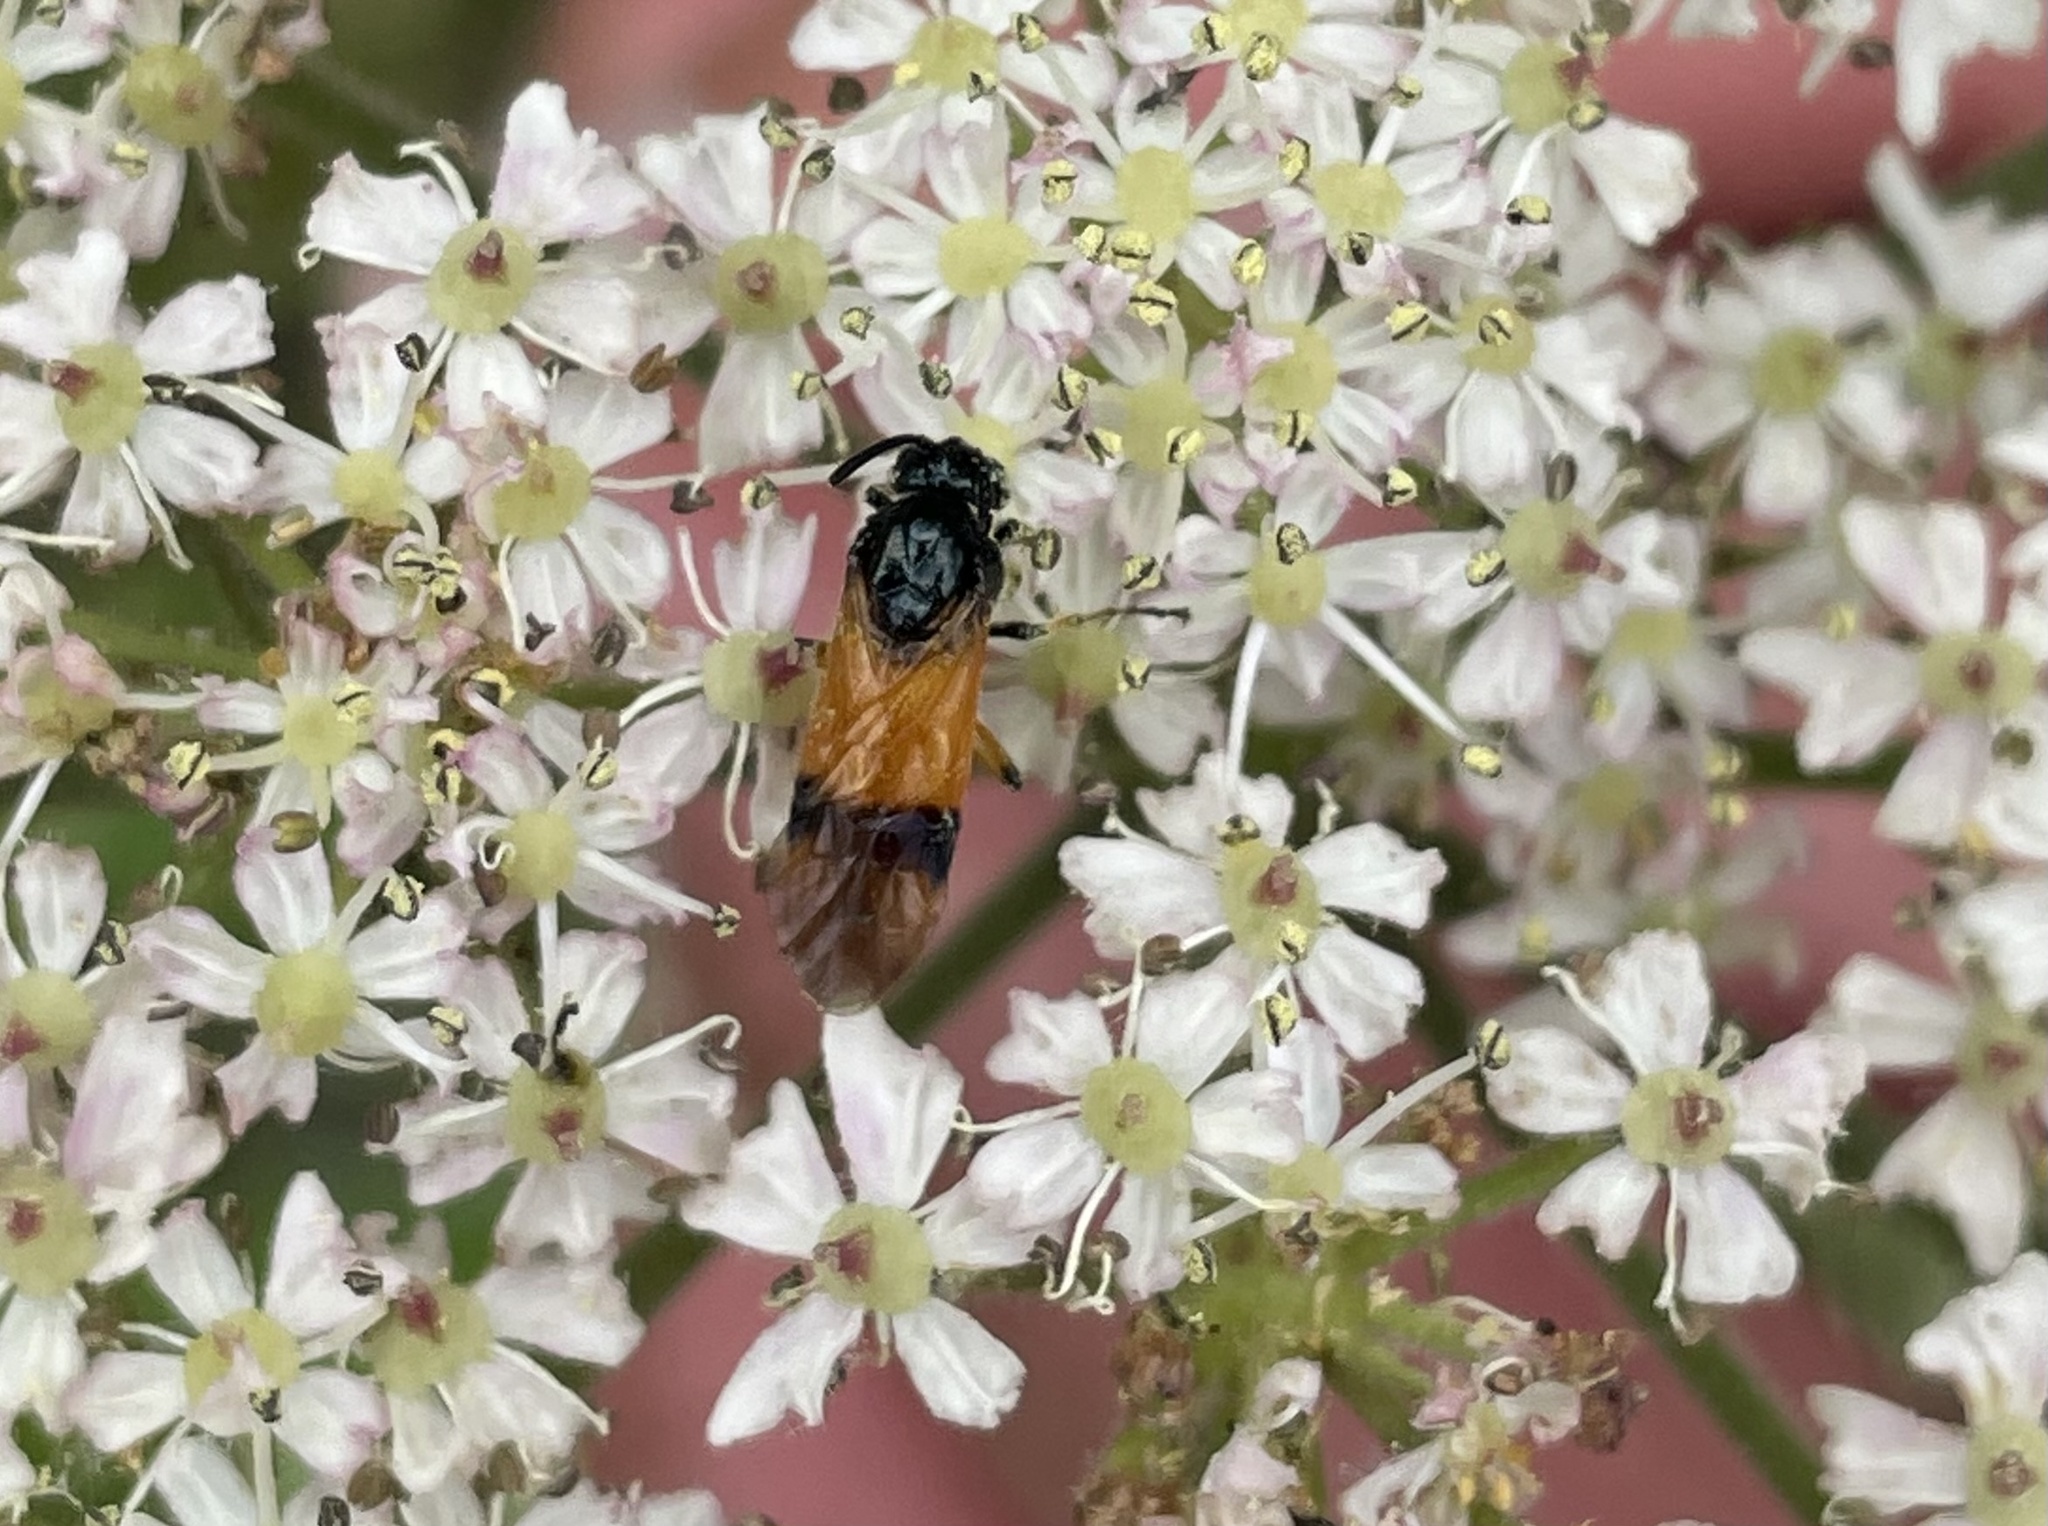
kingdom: Animalia
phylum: Arthropoda
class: Insecta
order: Hymenoptera
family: Argidae
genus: Arge
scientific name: Arge cyanocrocea
